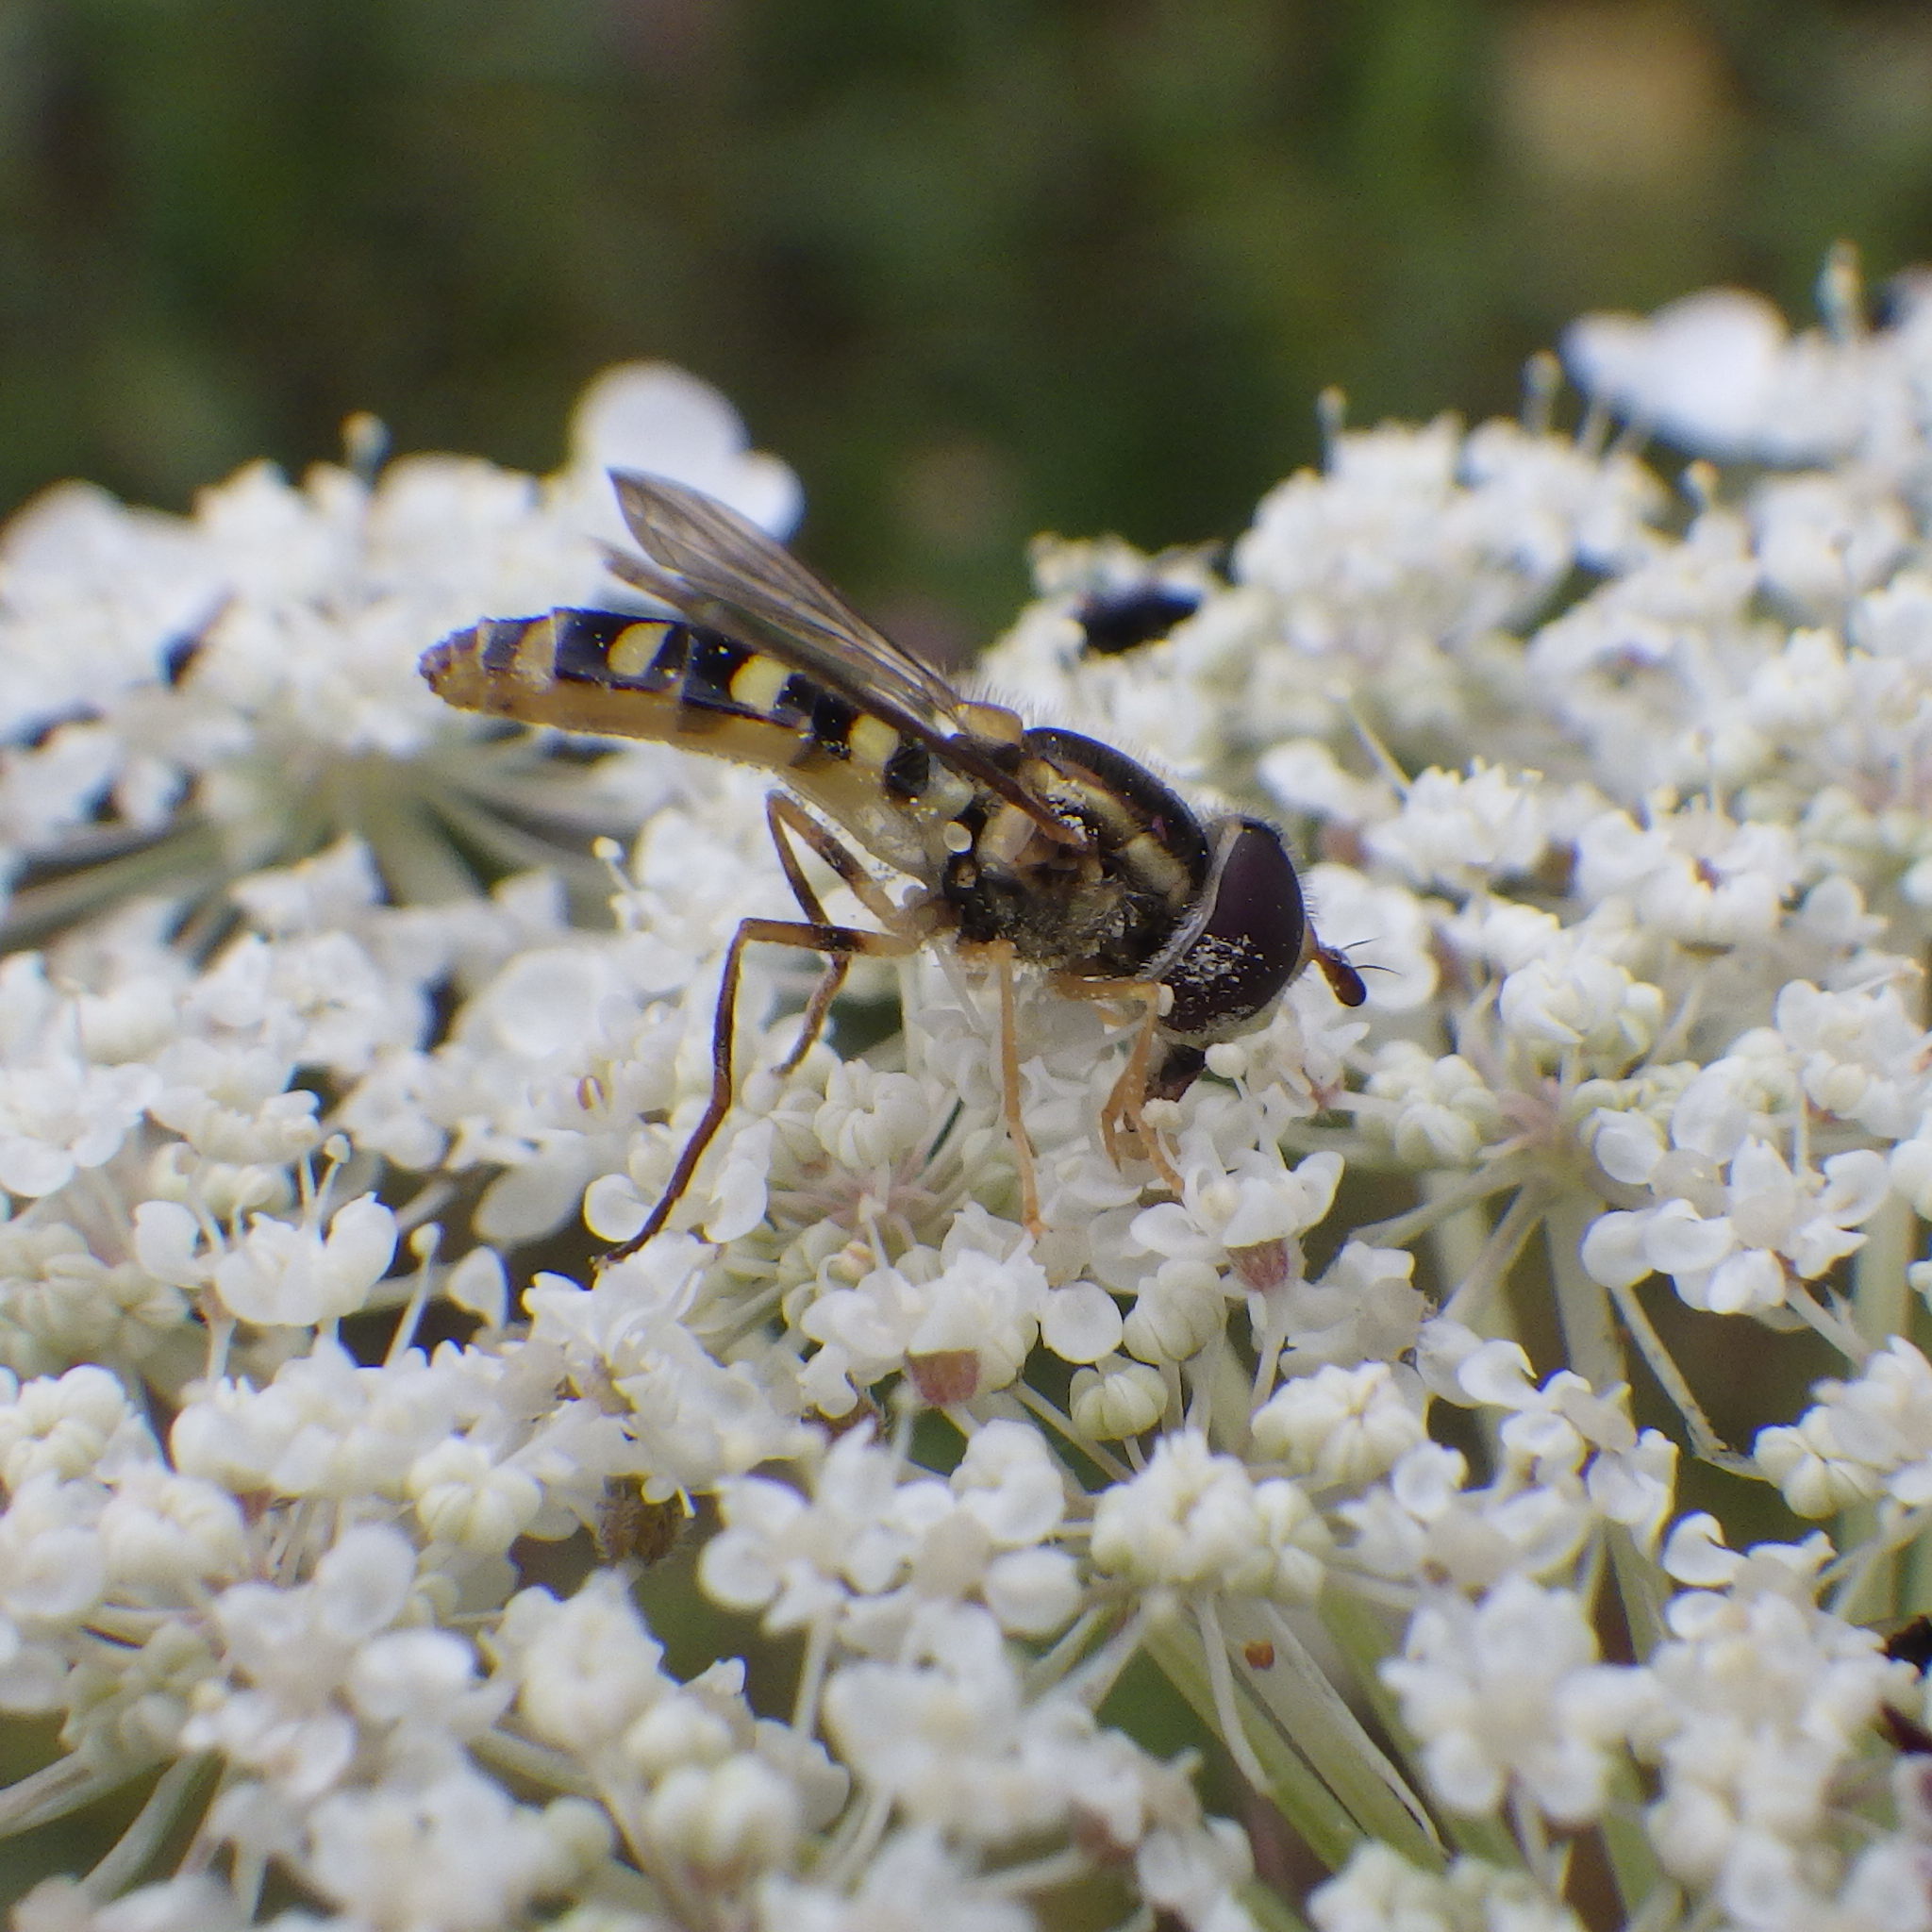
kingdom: Animalia
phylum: Arthropoda
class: Insecta
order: Diptera
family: Syrphidae
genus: Epistrophella
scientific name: Epistrophella emarginata
